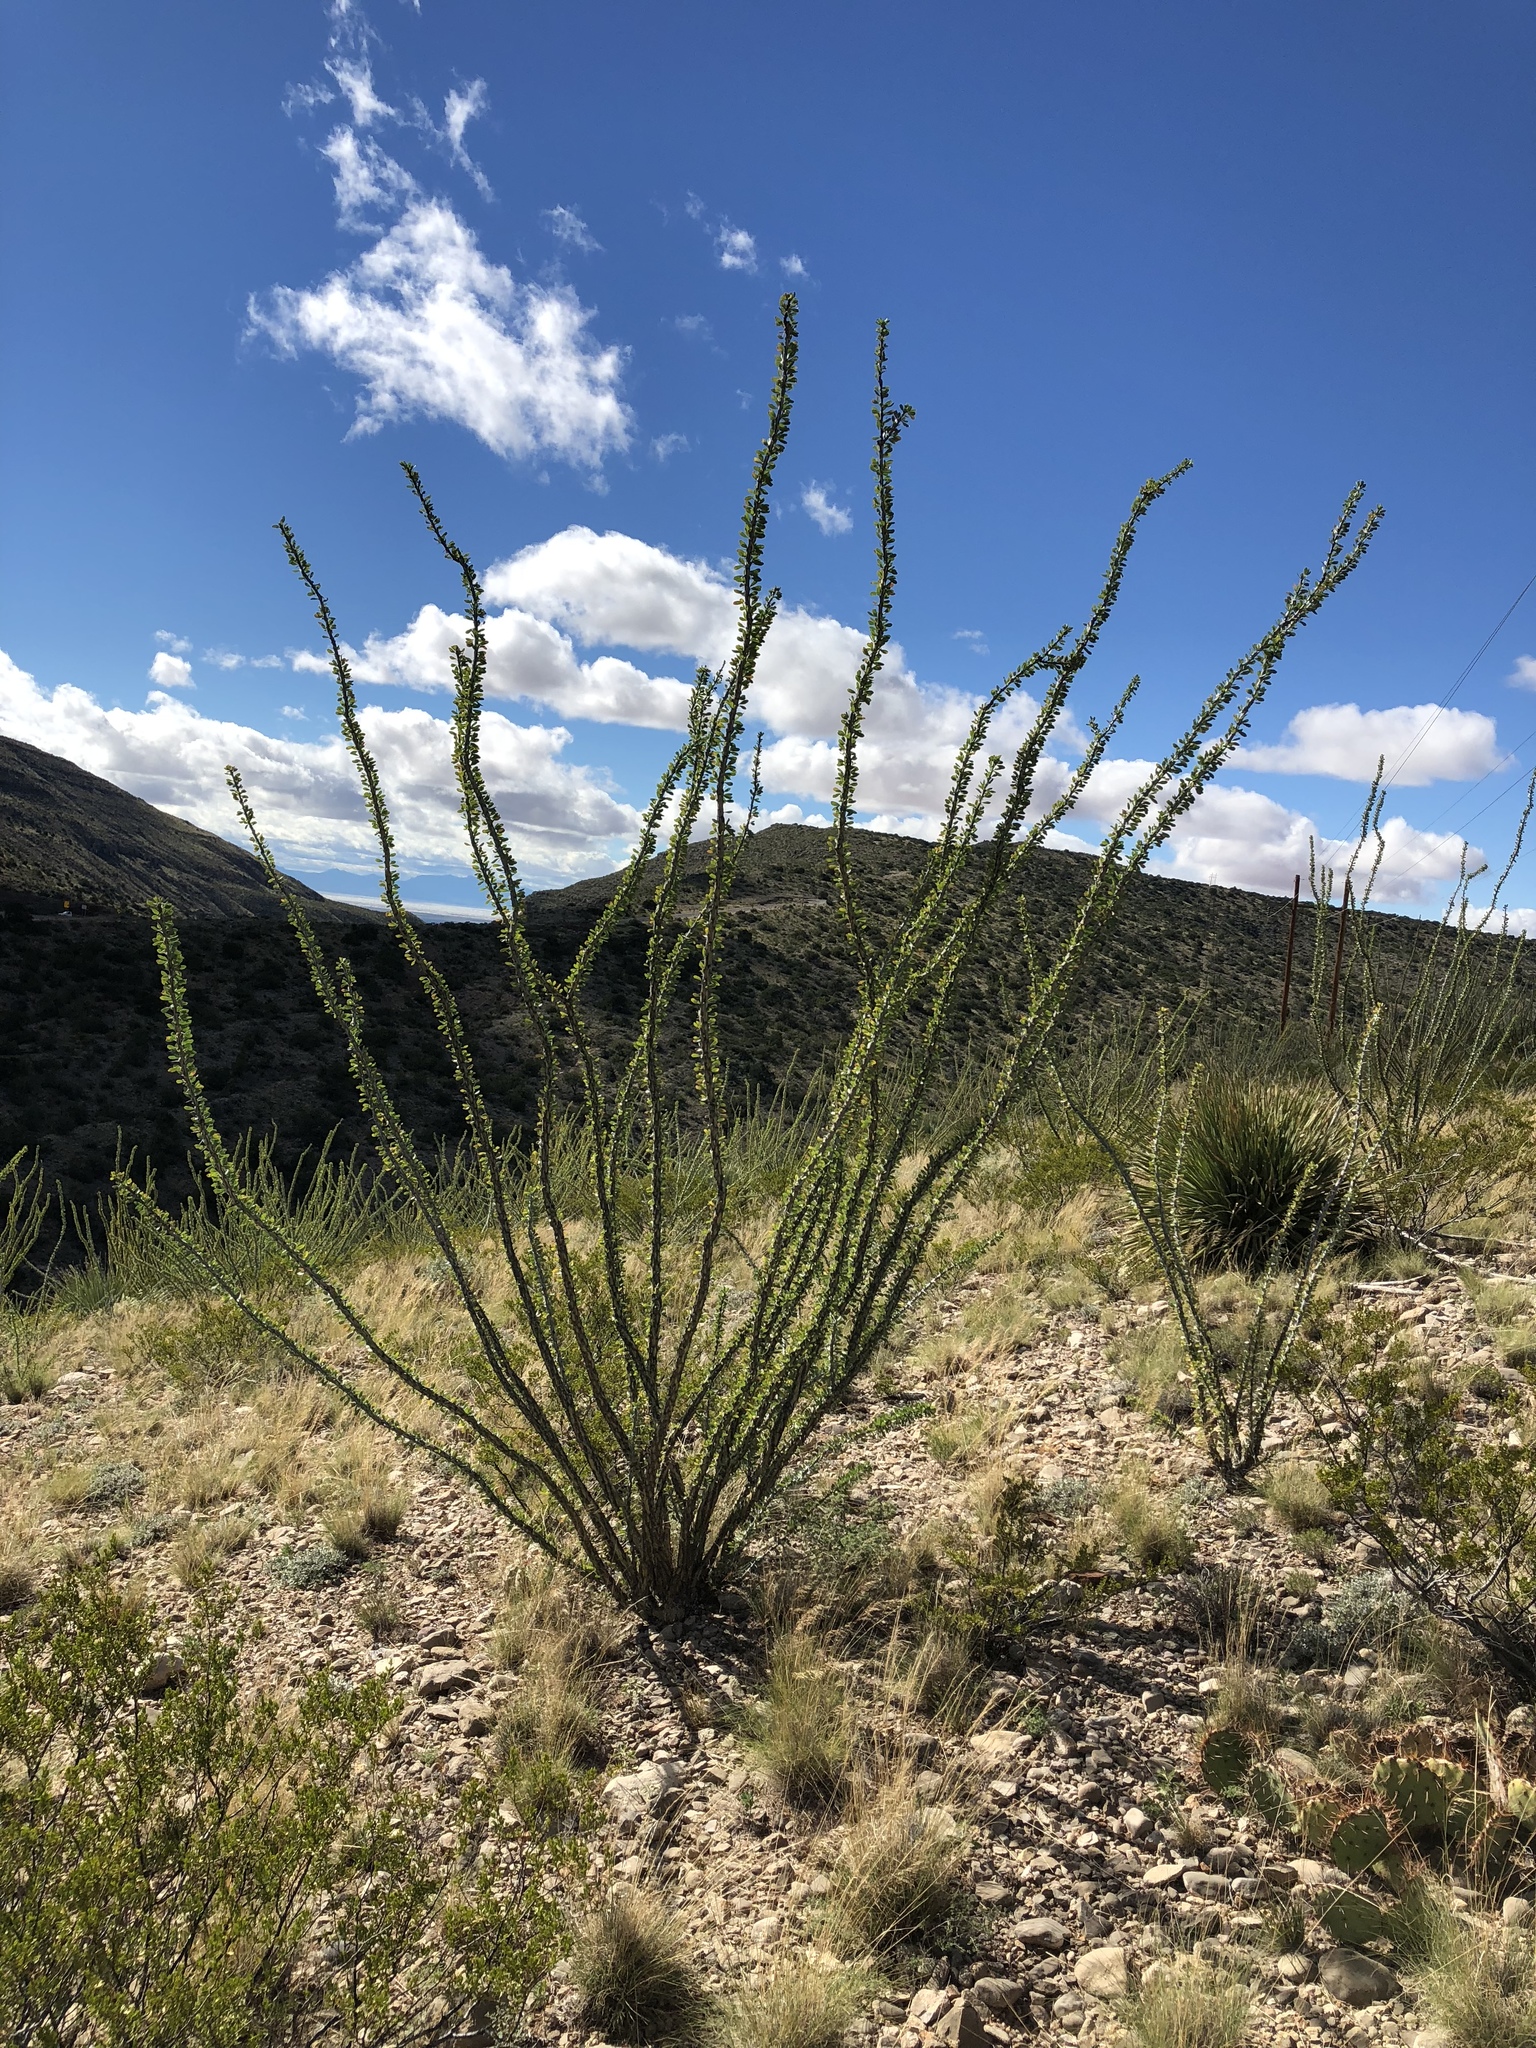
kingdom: Plantae
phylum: Tracheophyta
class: Magnoliopsida
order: Ericales
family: Fouquieriaceae
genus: Fouquieria
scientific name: Fouquieria splendens
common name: Vine-cactus
